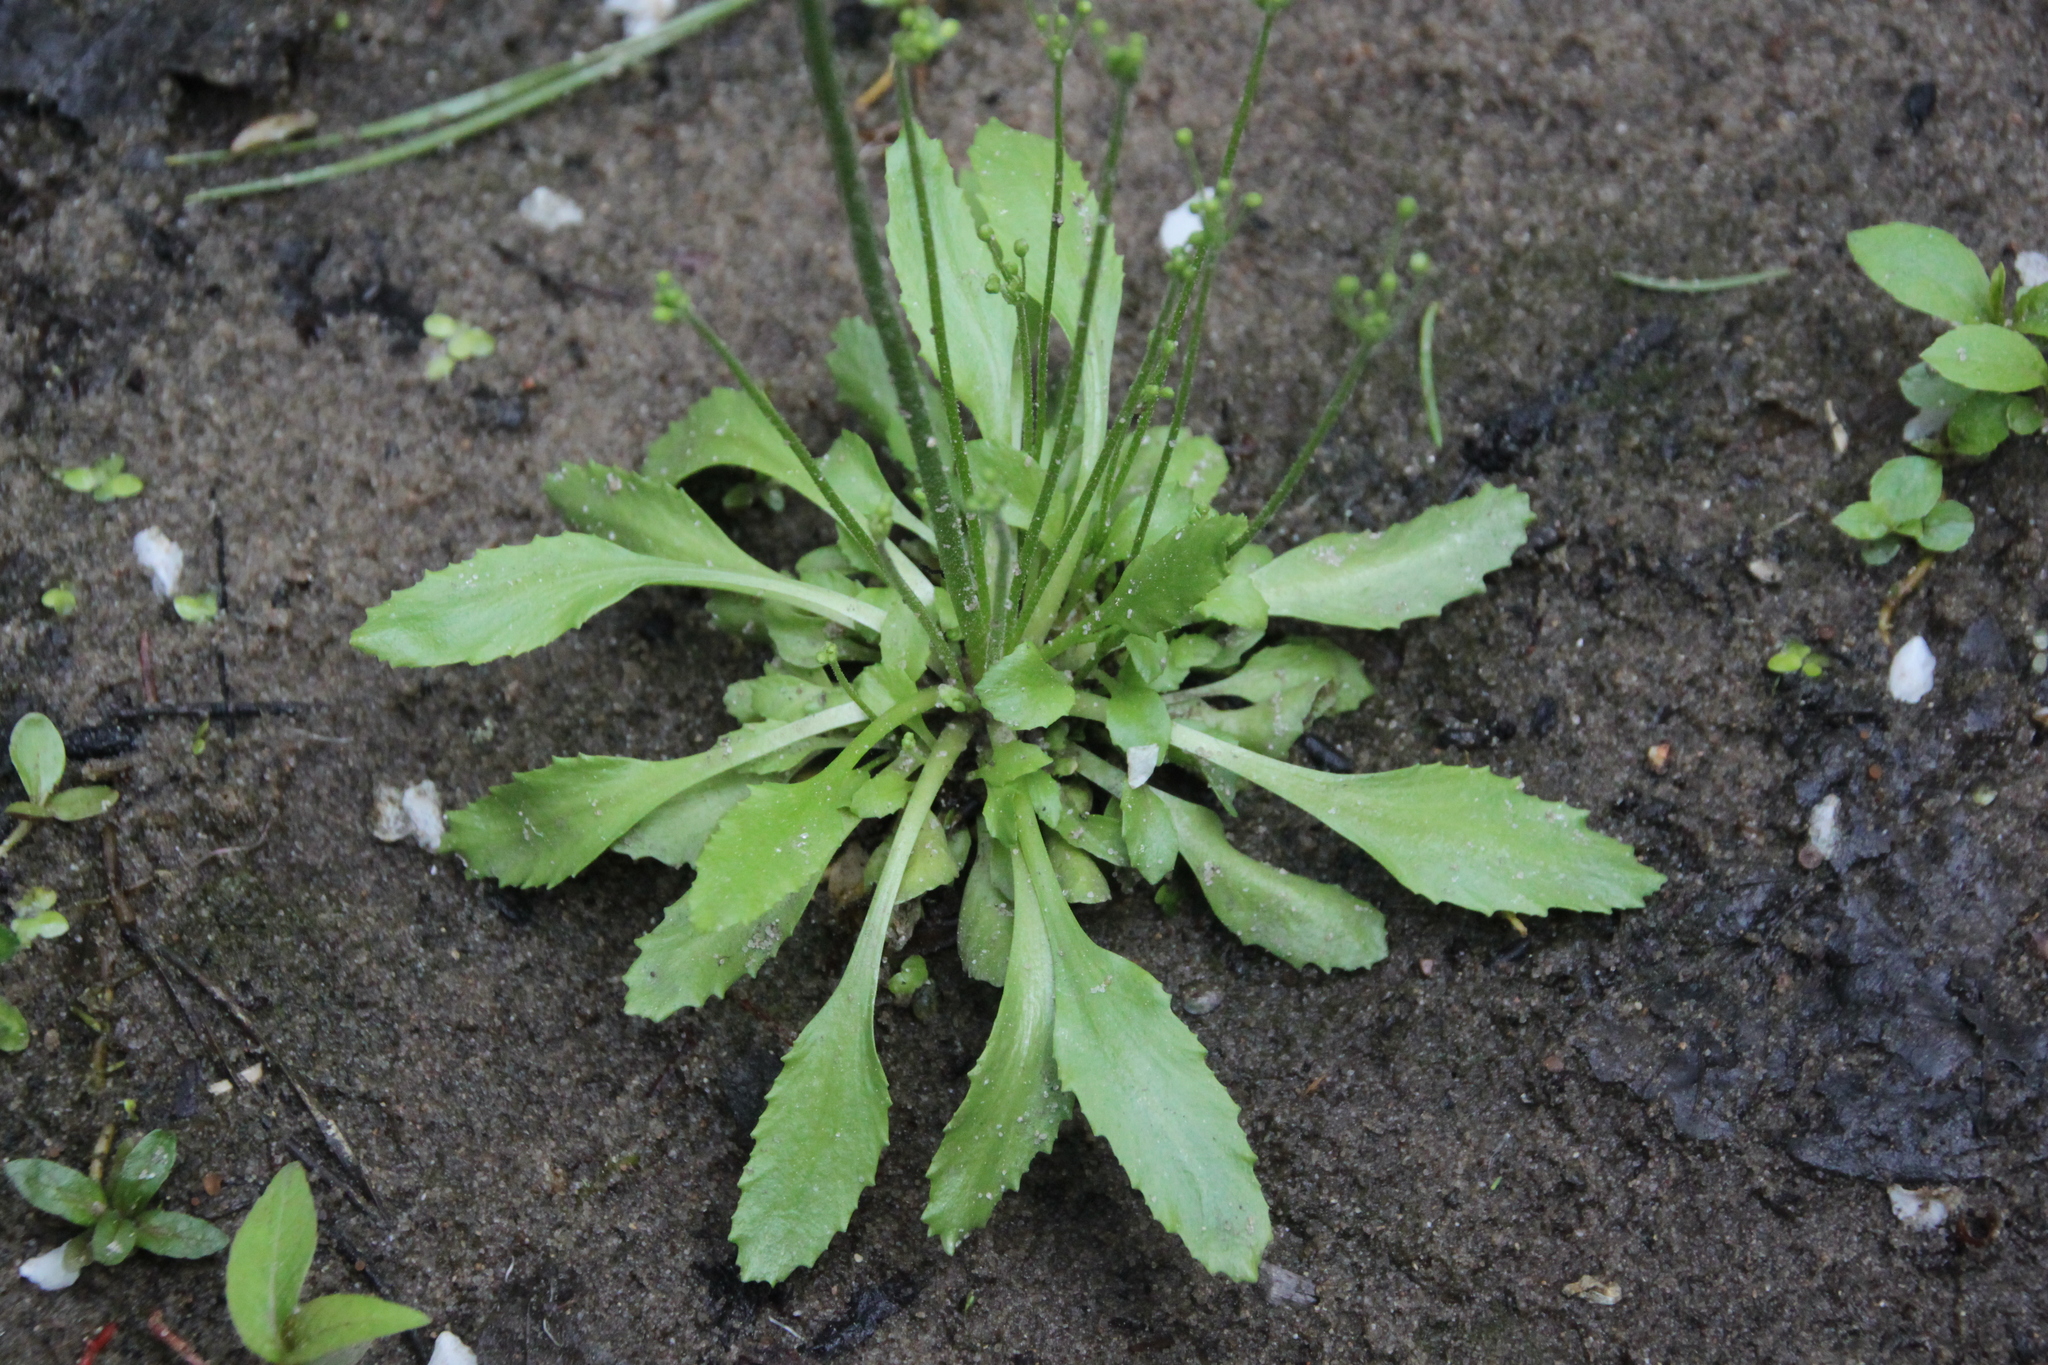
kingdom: Plantae
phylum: Tracheophyta
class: Magnoliopsida
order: Ericales
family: Primulaceae
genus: Androsace
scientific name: Androsace filiformis
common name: Filiform rock jasmine
